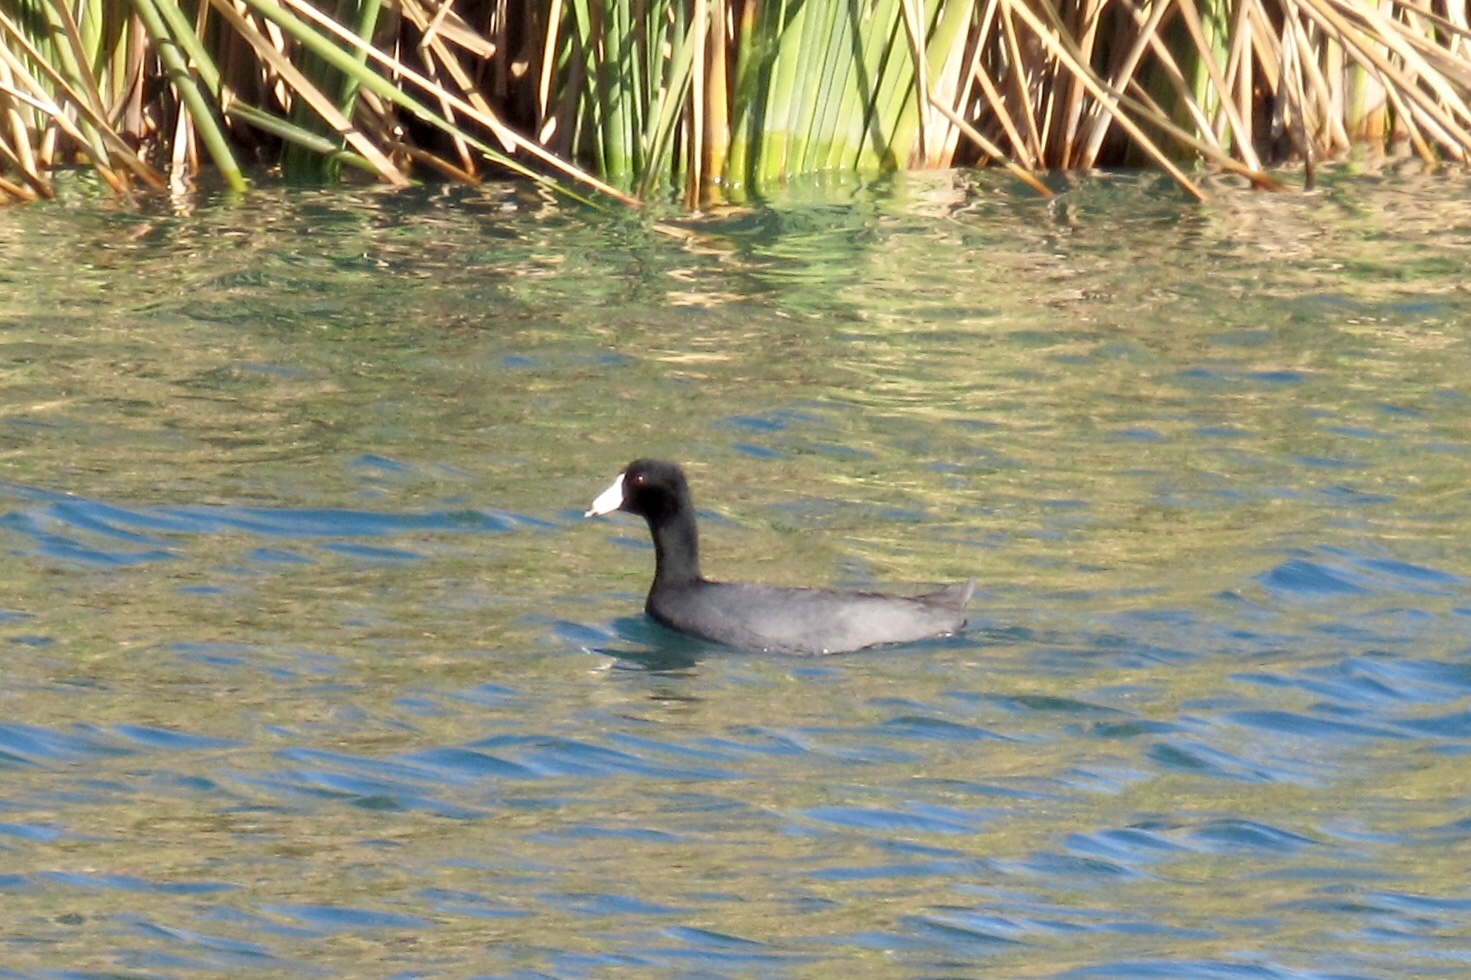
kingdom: Animalia
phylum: Chordata
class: Aves
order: Gruiformes
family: Rallidae
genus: Fulica
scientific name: Fulica americana
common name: American coot
